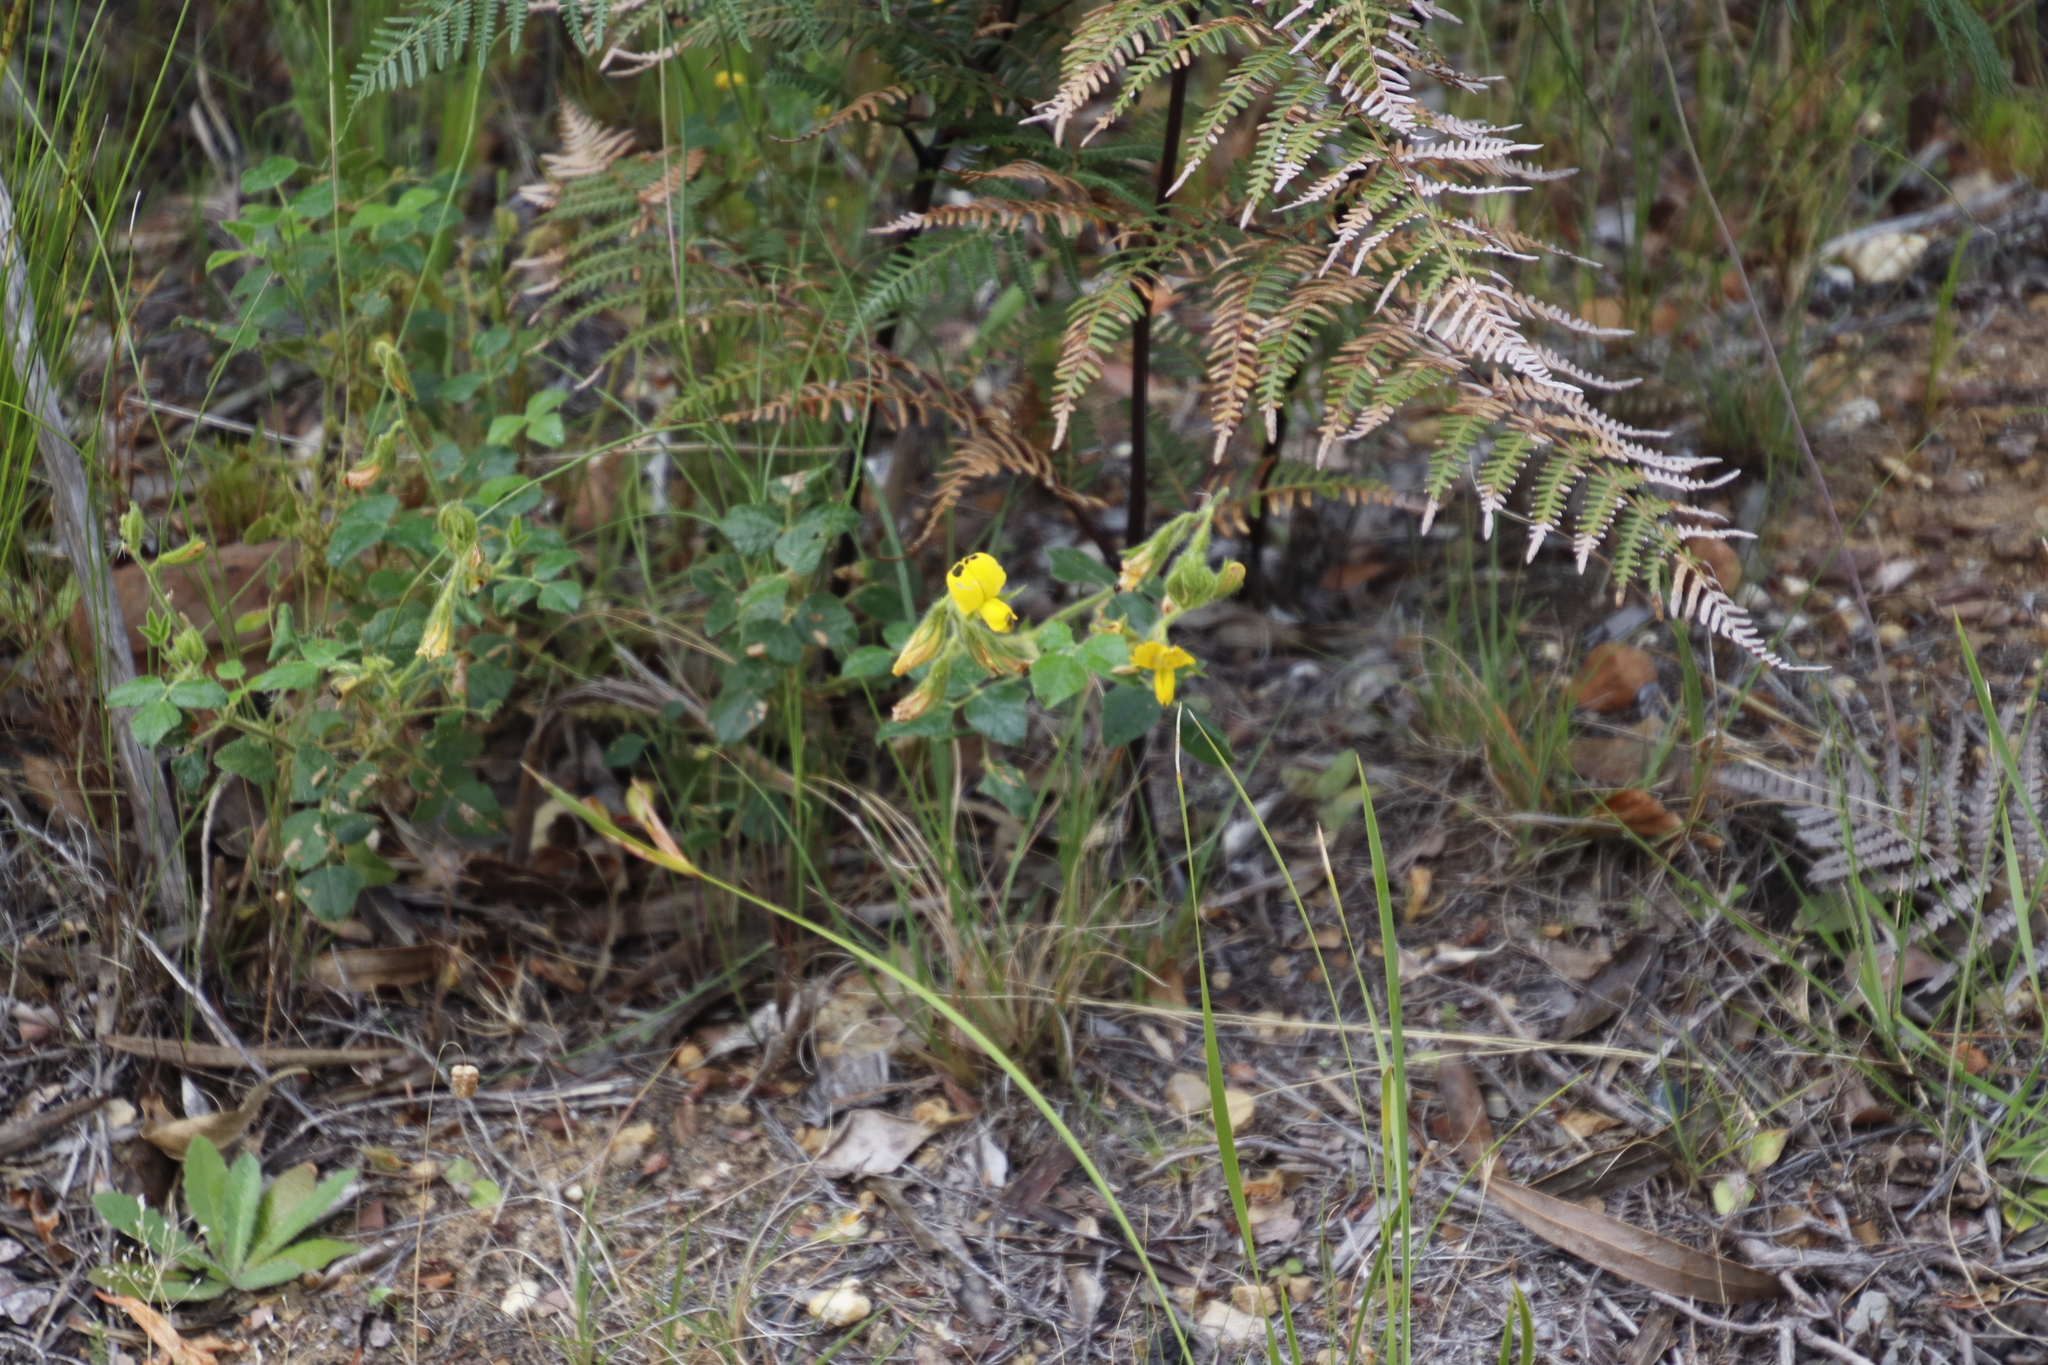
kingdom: Plantae
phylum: Tracheophyta
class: Magnoliopsida
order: Fabales
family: Fabaceae
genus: Bolusafra
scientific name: Bolusafra bituminosa
